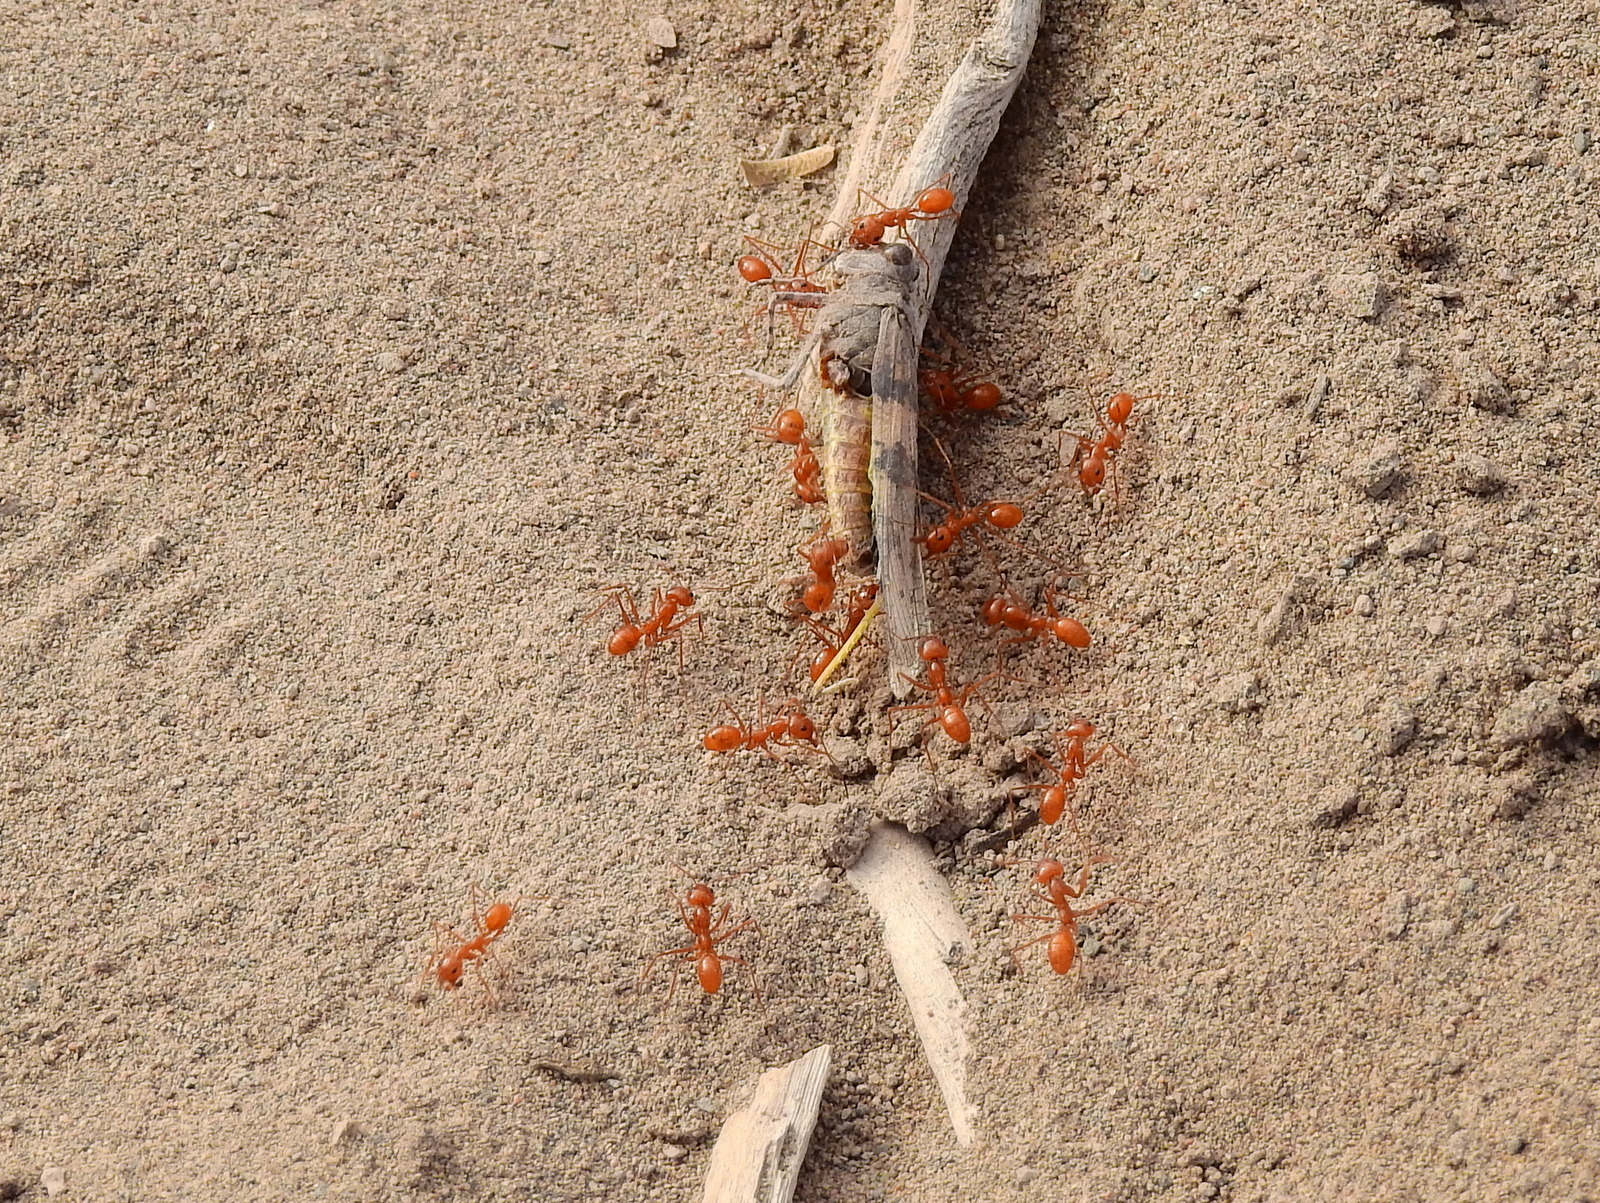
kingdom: Animalia
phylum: Arthropoda
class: Insecta
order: Hymenoptera
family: Formicidae
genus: Dorymyrmex
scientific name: Dorymyrmex planidens
